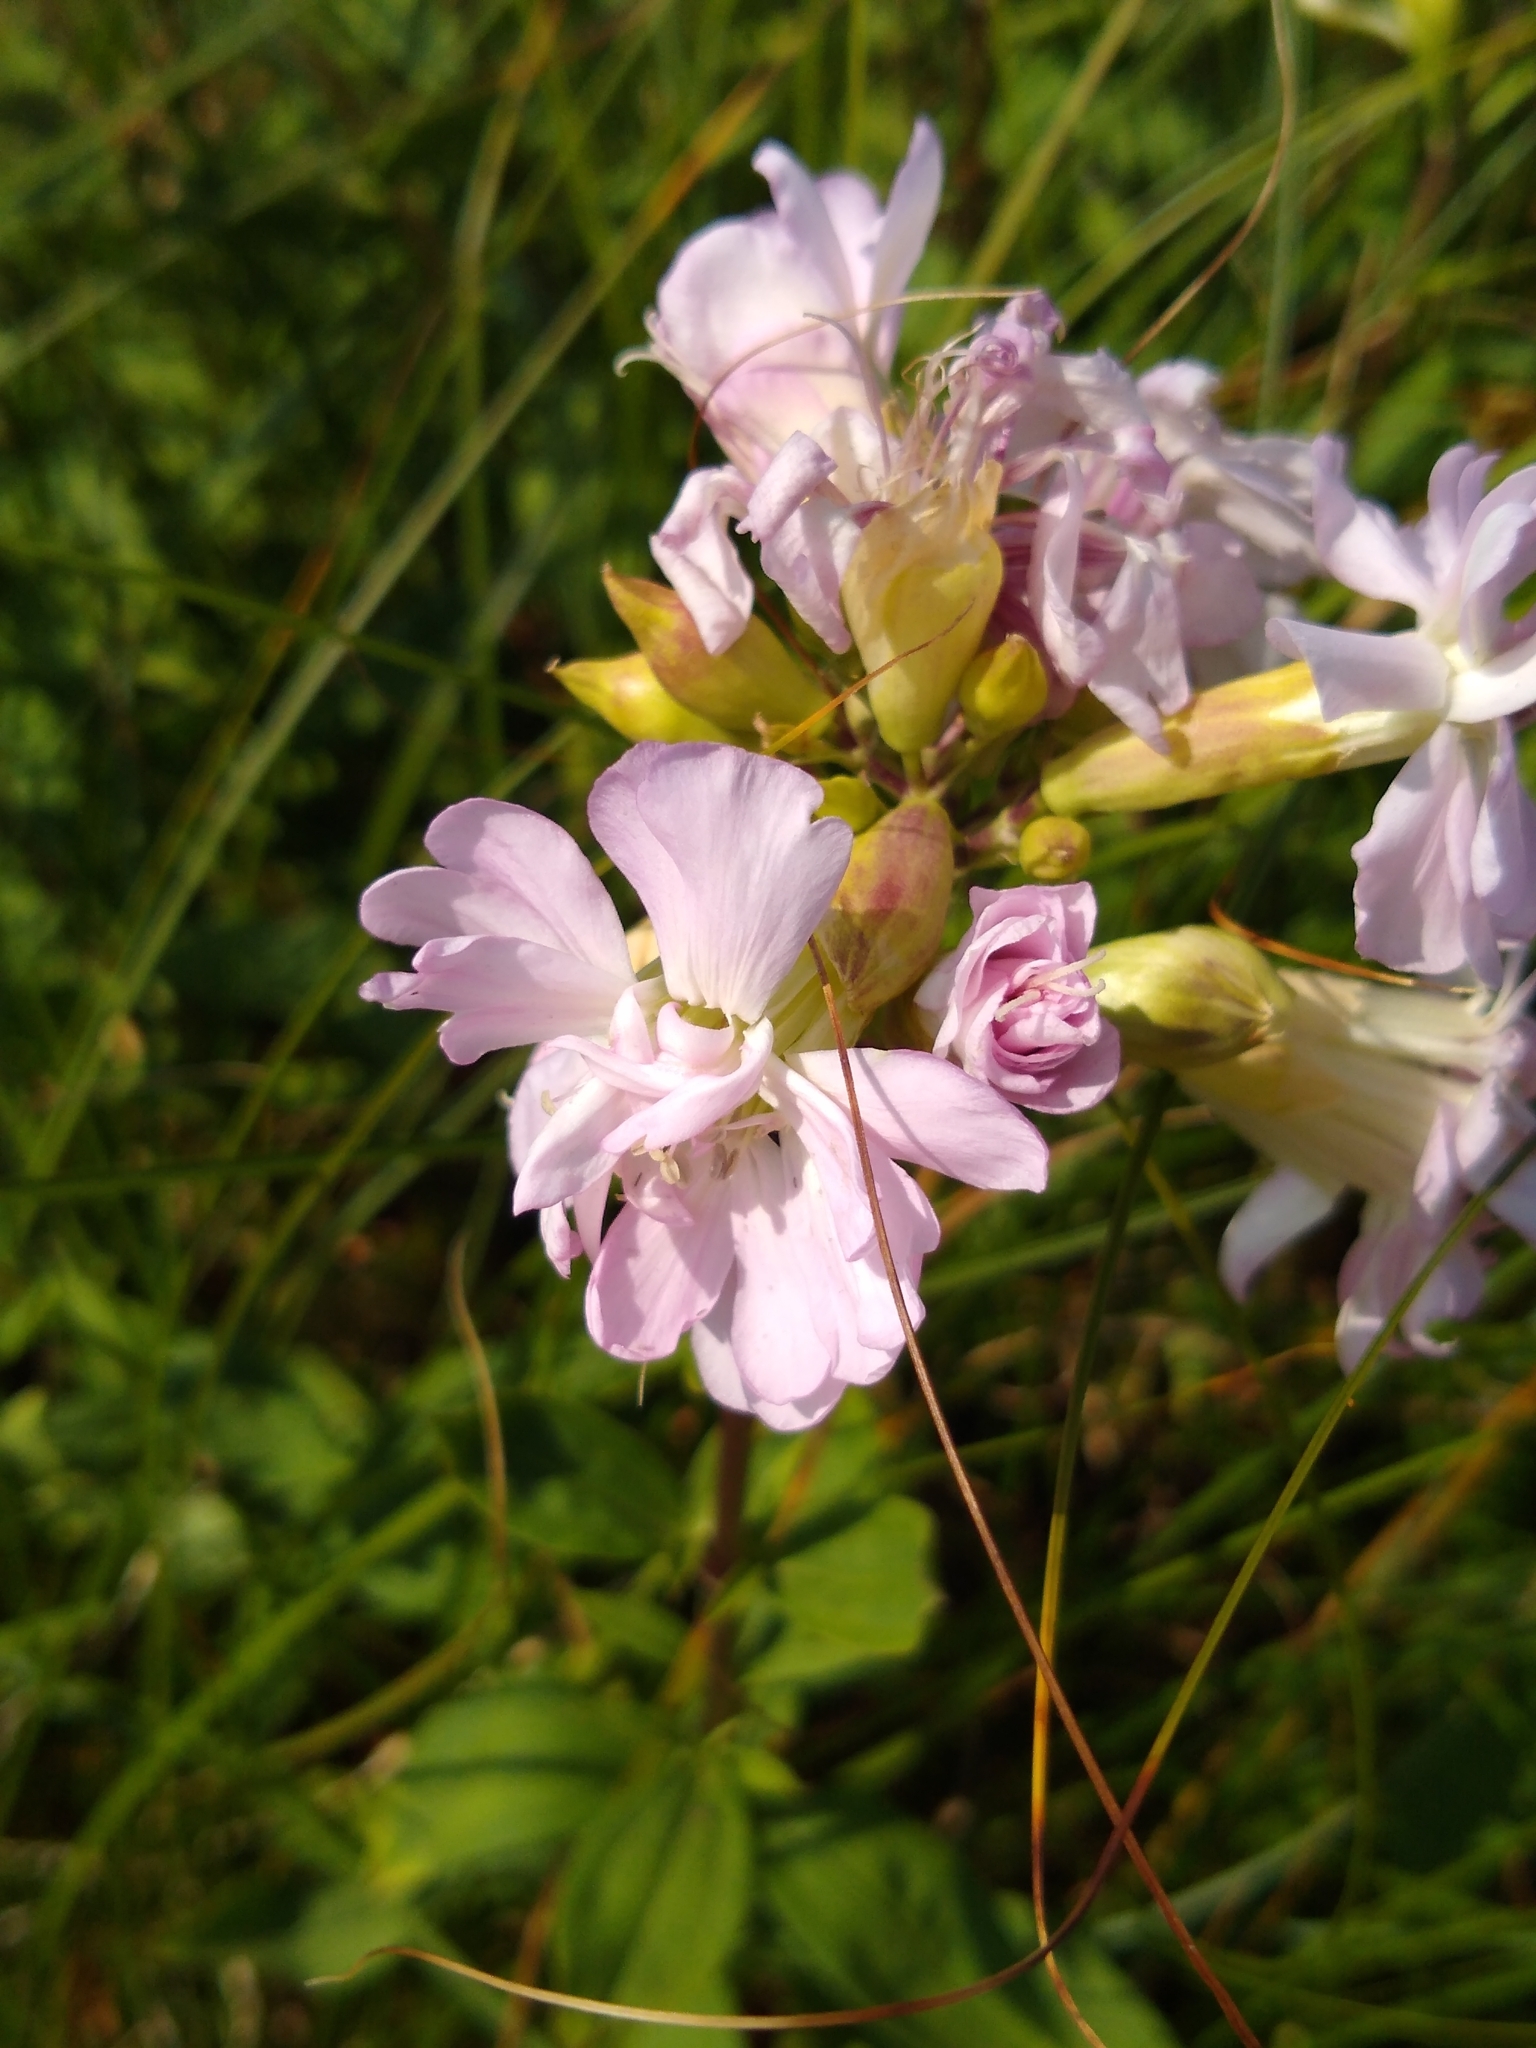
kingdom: Plantae
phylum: Tracheophyta
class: Magnoliopsida
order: Caryophyllales
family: Caryophyllaceae
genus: Saponaria
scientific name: Saponaria officinalis
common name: Soapwort
